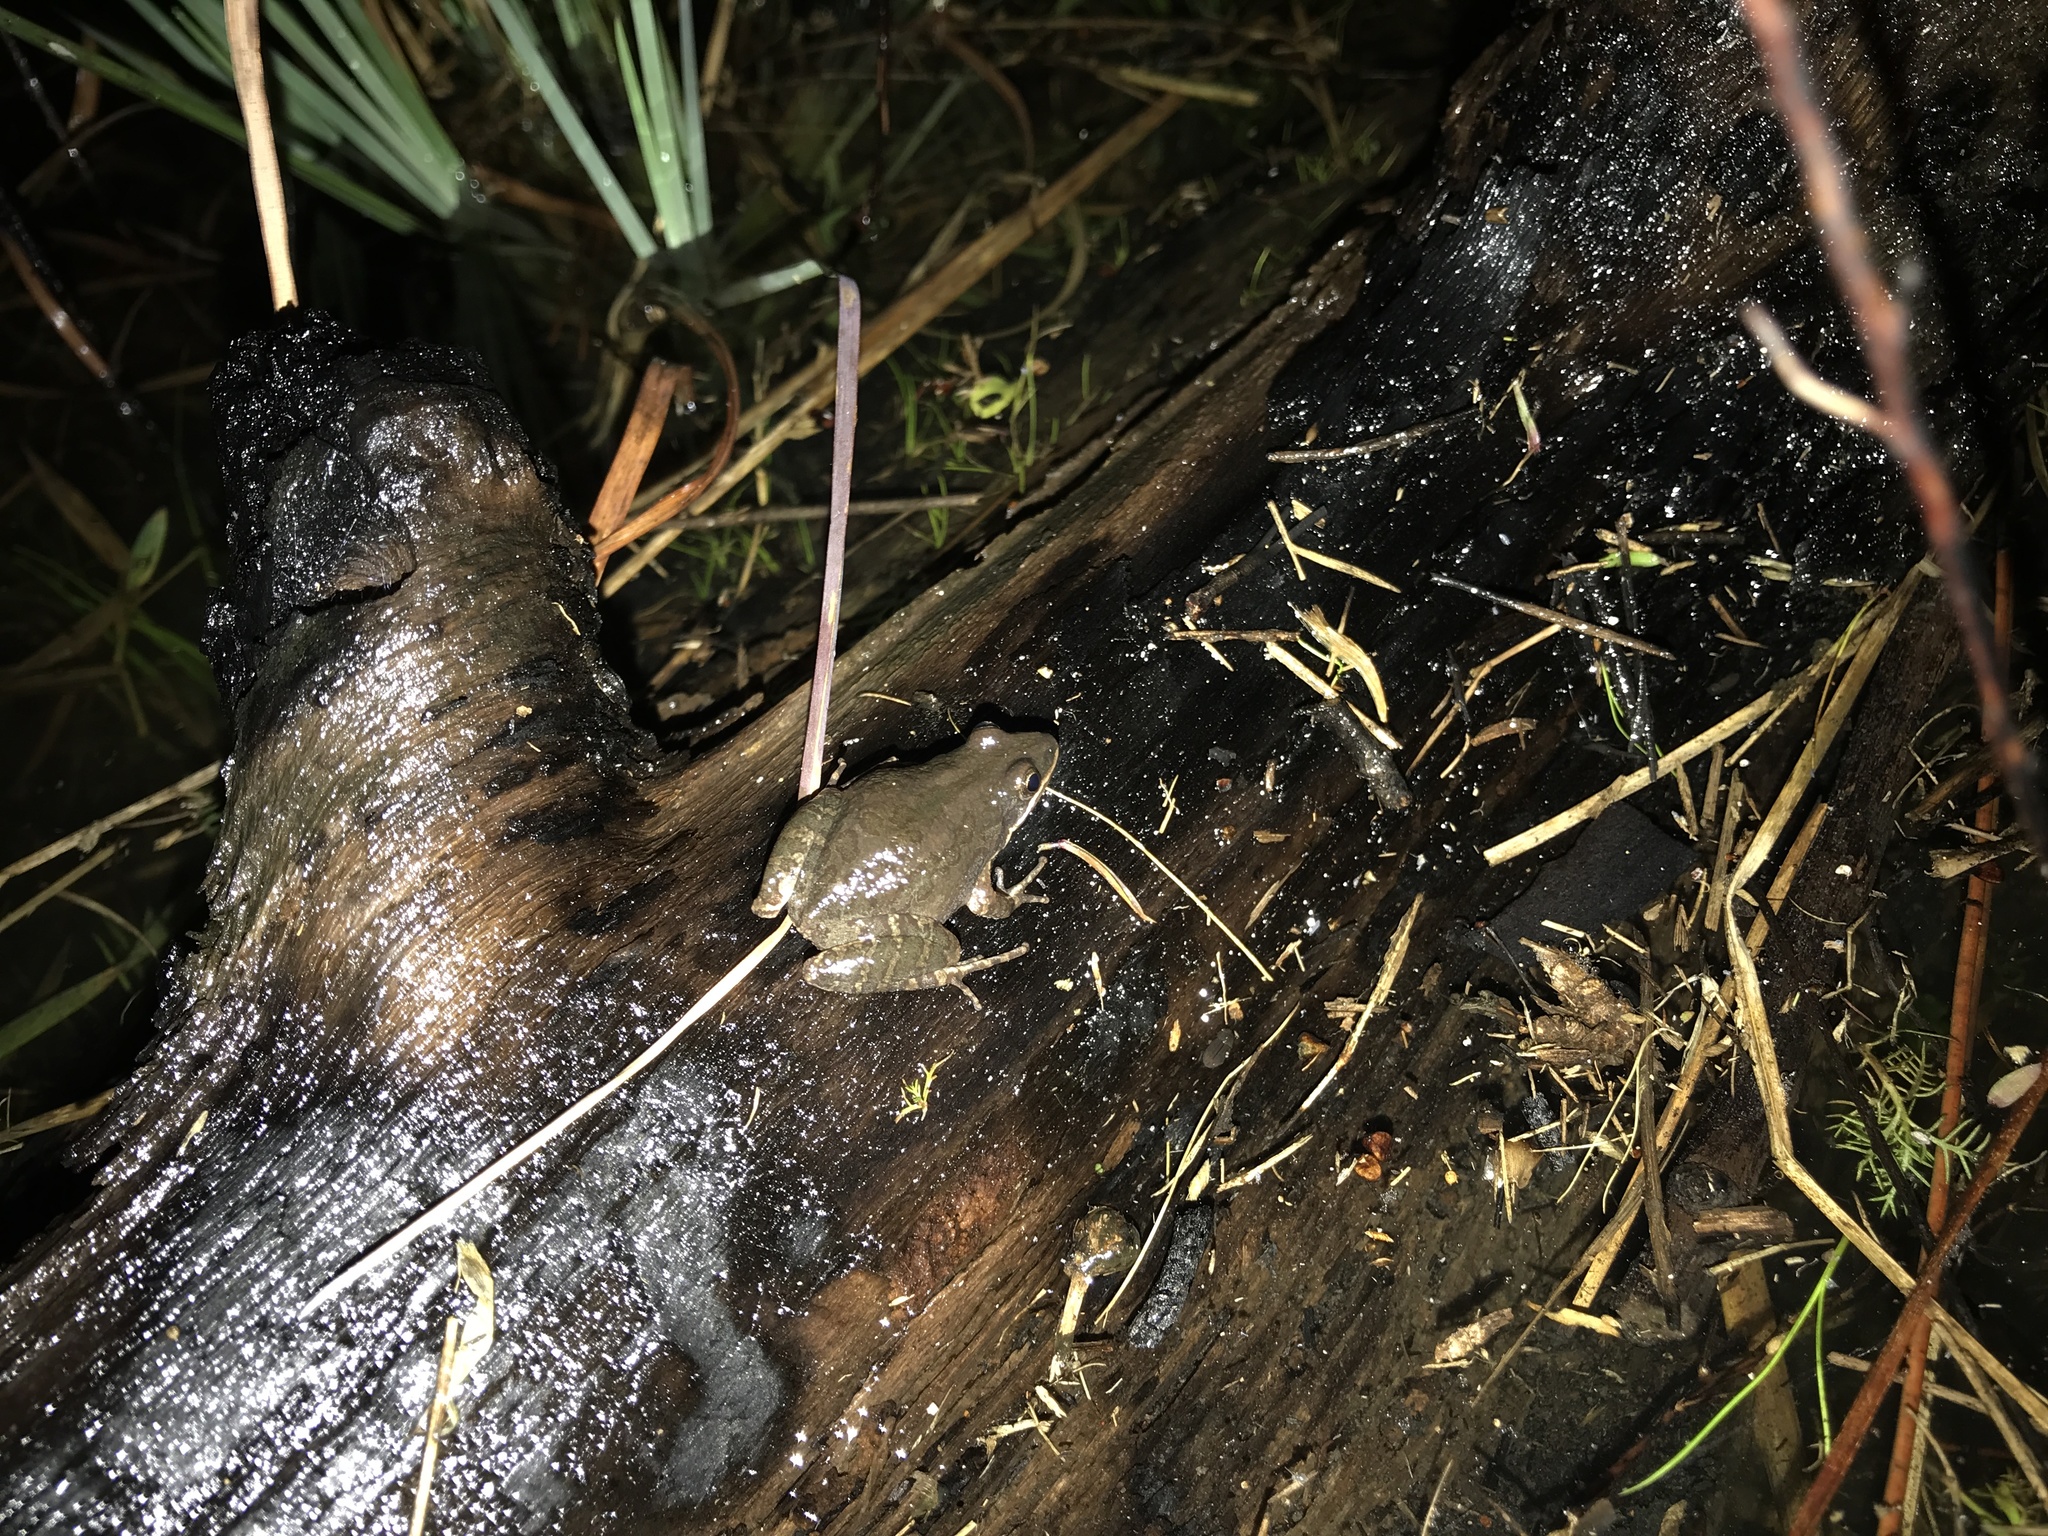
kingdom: Animalia
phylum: Chordata
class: Amphibia
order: Anura
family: Hylidae
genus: Pseudacris
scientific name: Pseudacris nigrita
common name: Southern chorus frog
